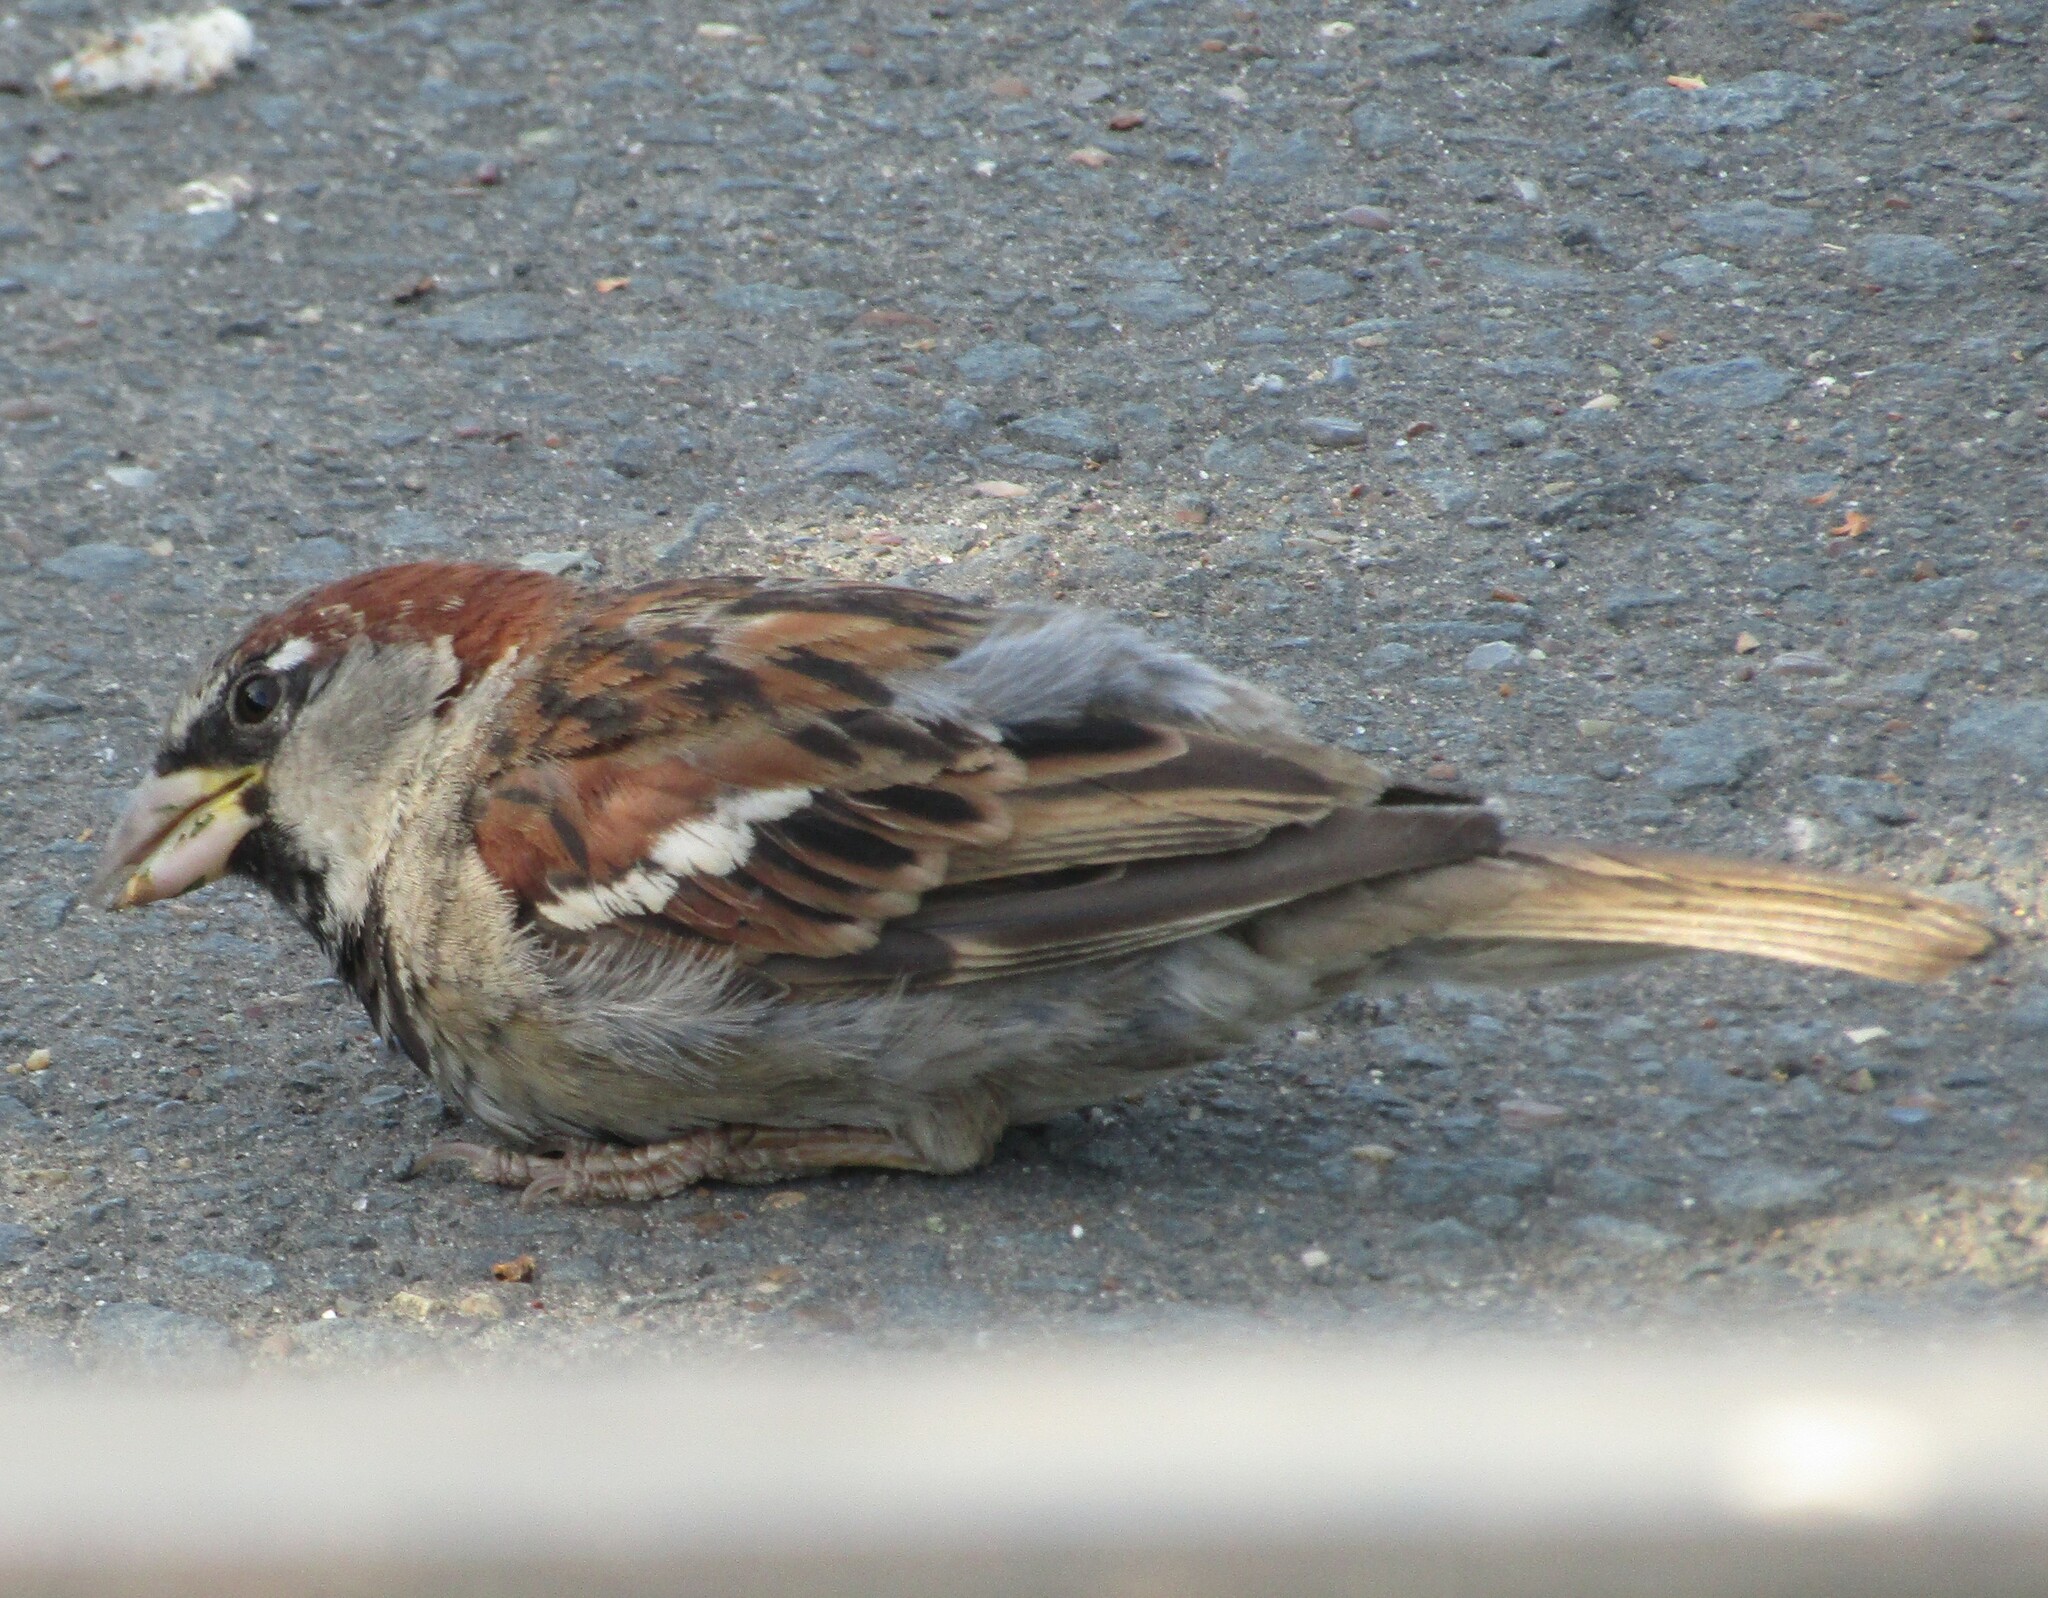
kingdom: Animalia
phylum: Chordata
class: Aves
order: Passeriformes
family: Passeridae
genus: Passer
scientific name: Passer domesticus
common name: House sparrow
